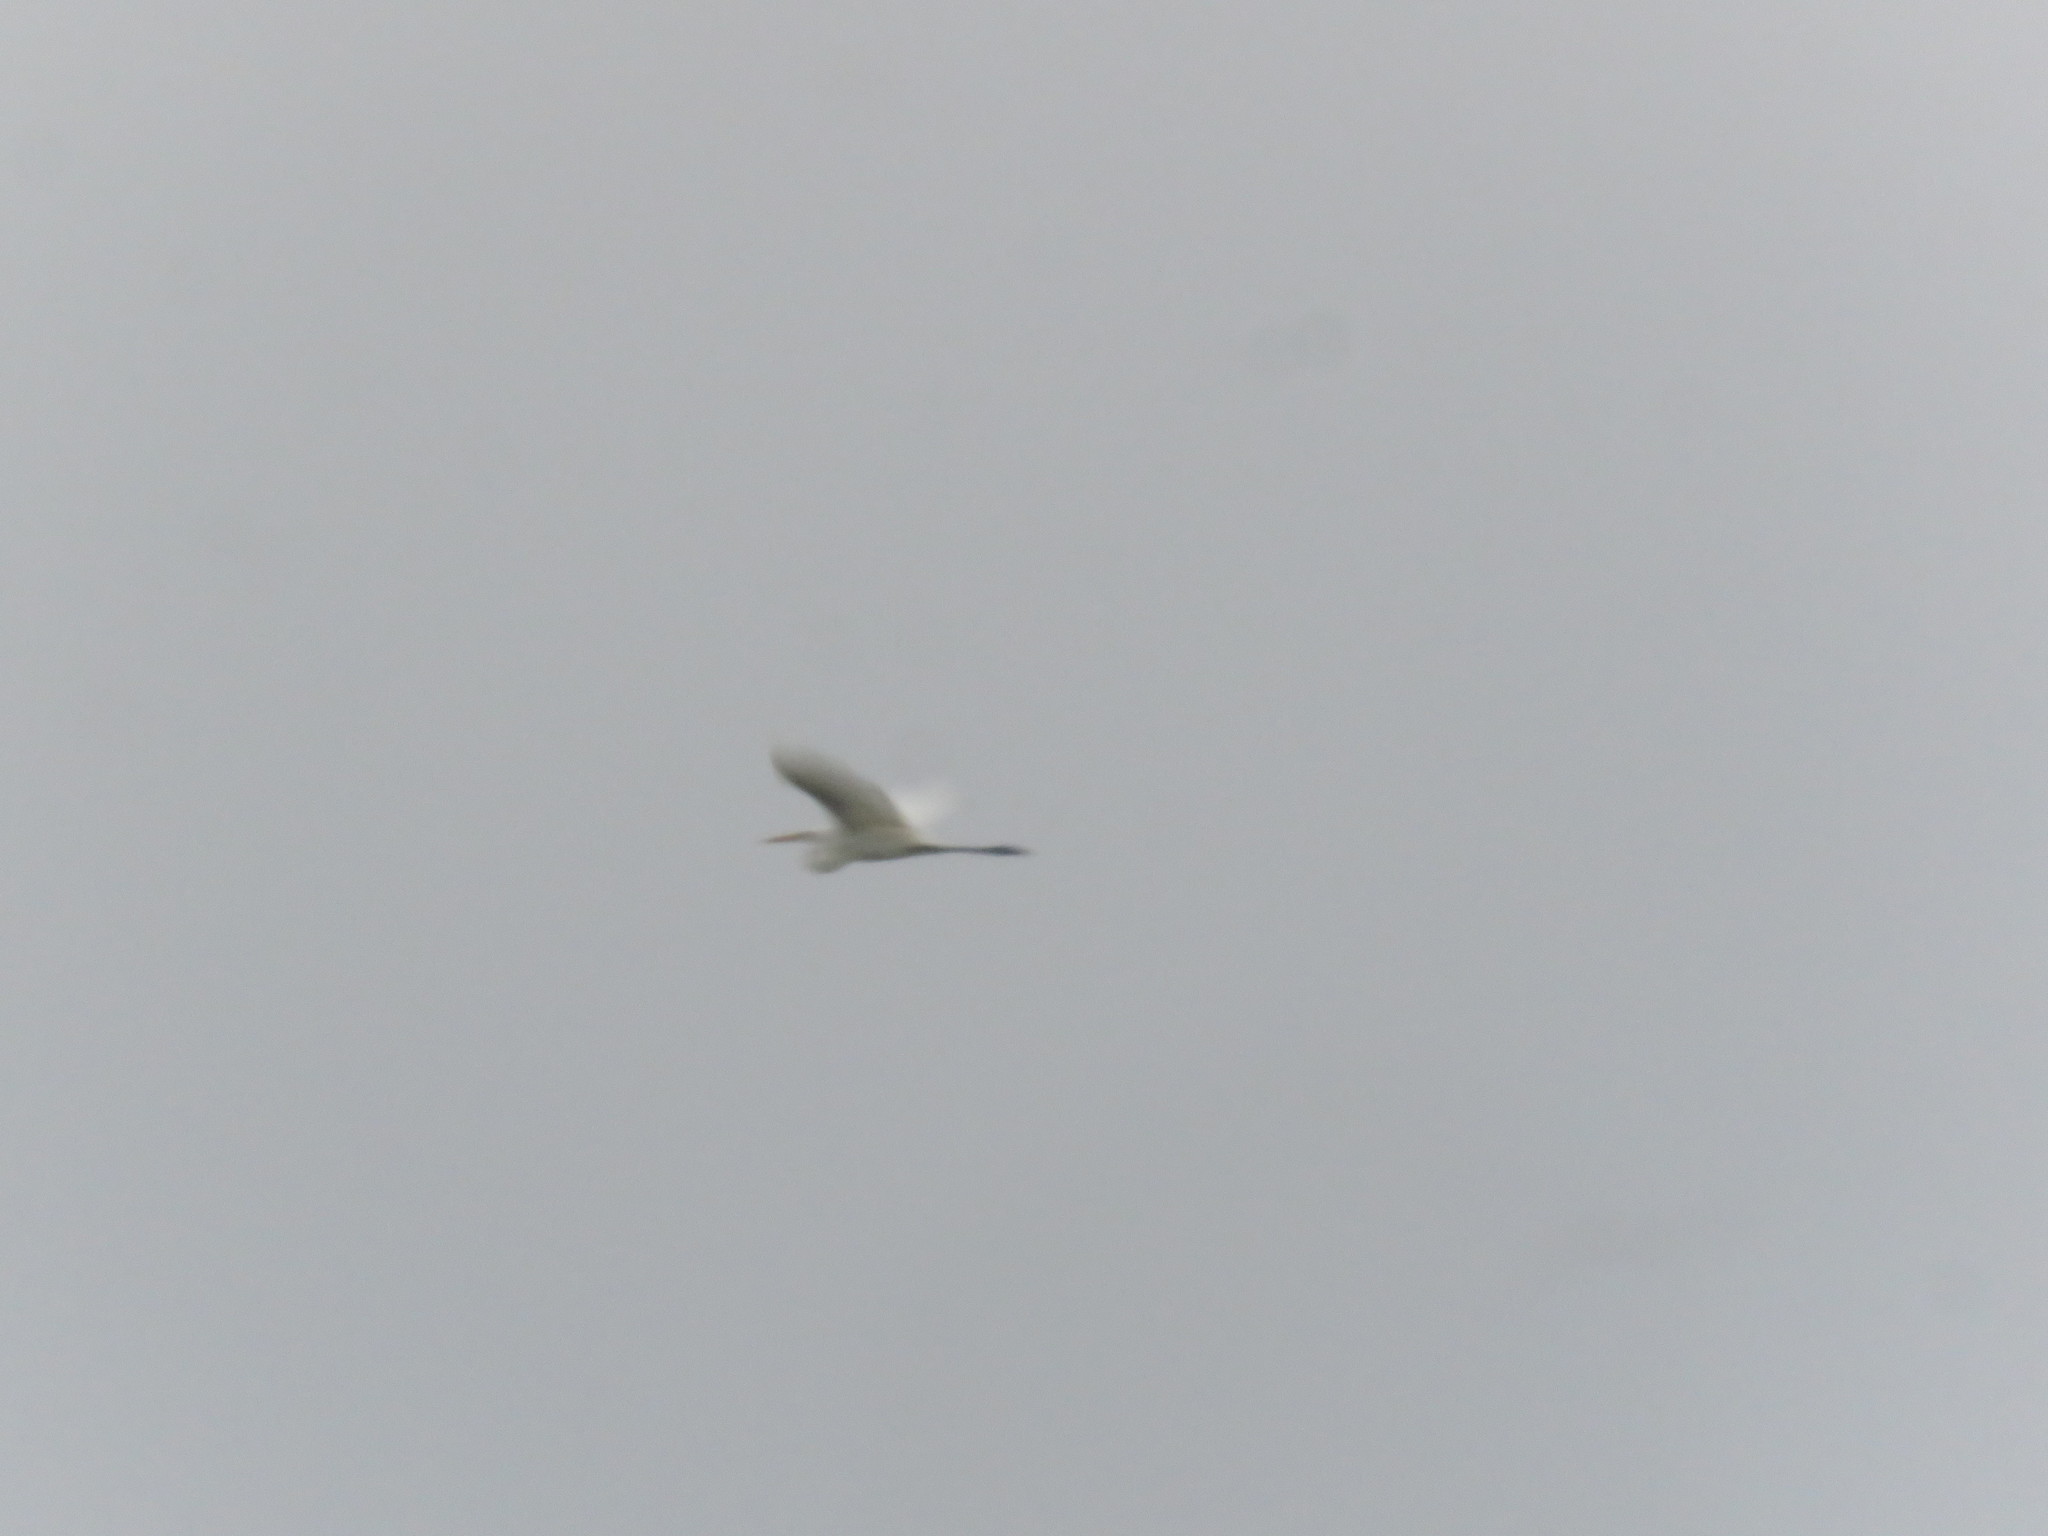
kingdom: Animalia
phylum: Chordata
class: Aves
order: Pelecaniformes
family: Ardeidae
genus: Ardea
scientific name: Ardea alba
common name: Great egret
